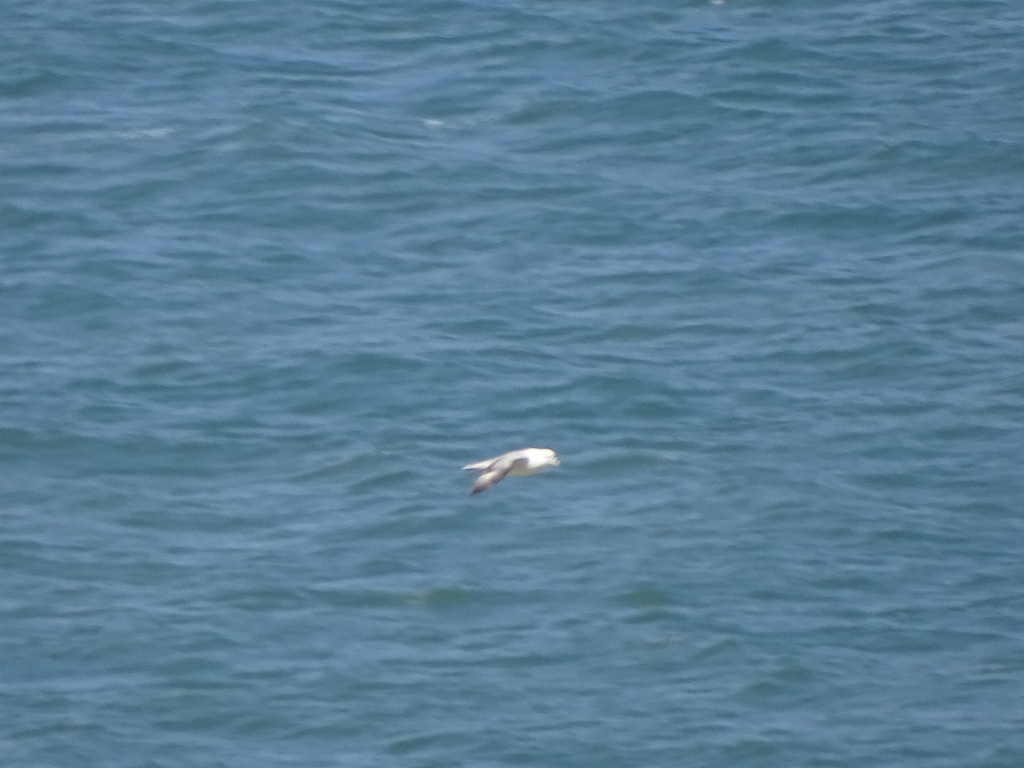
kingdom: Animalia
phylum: Chordata
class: Aves
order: Procellariiformes
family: Procellariidae
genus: Fulmarus
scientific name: Fulmarus glacialis
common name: Northern fulmar
